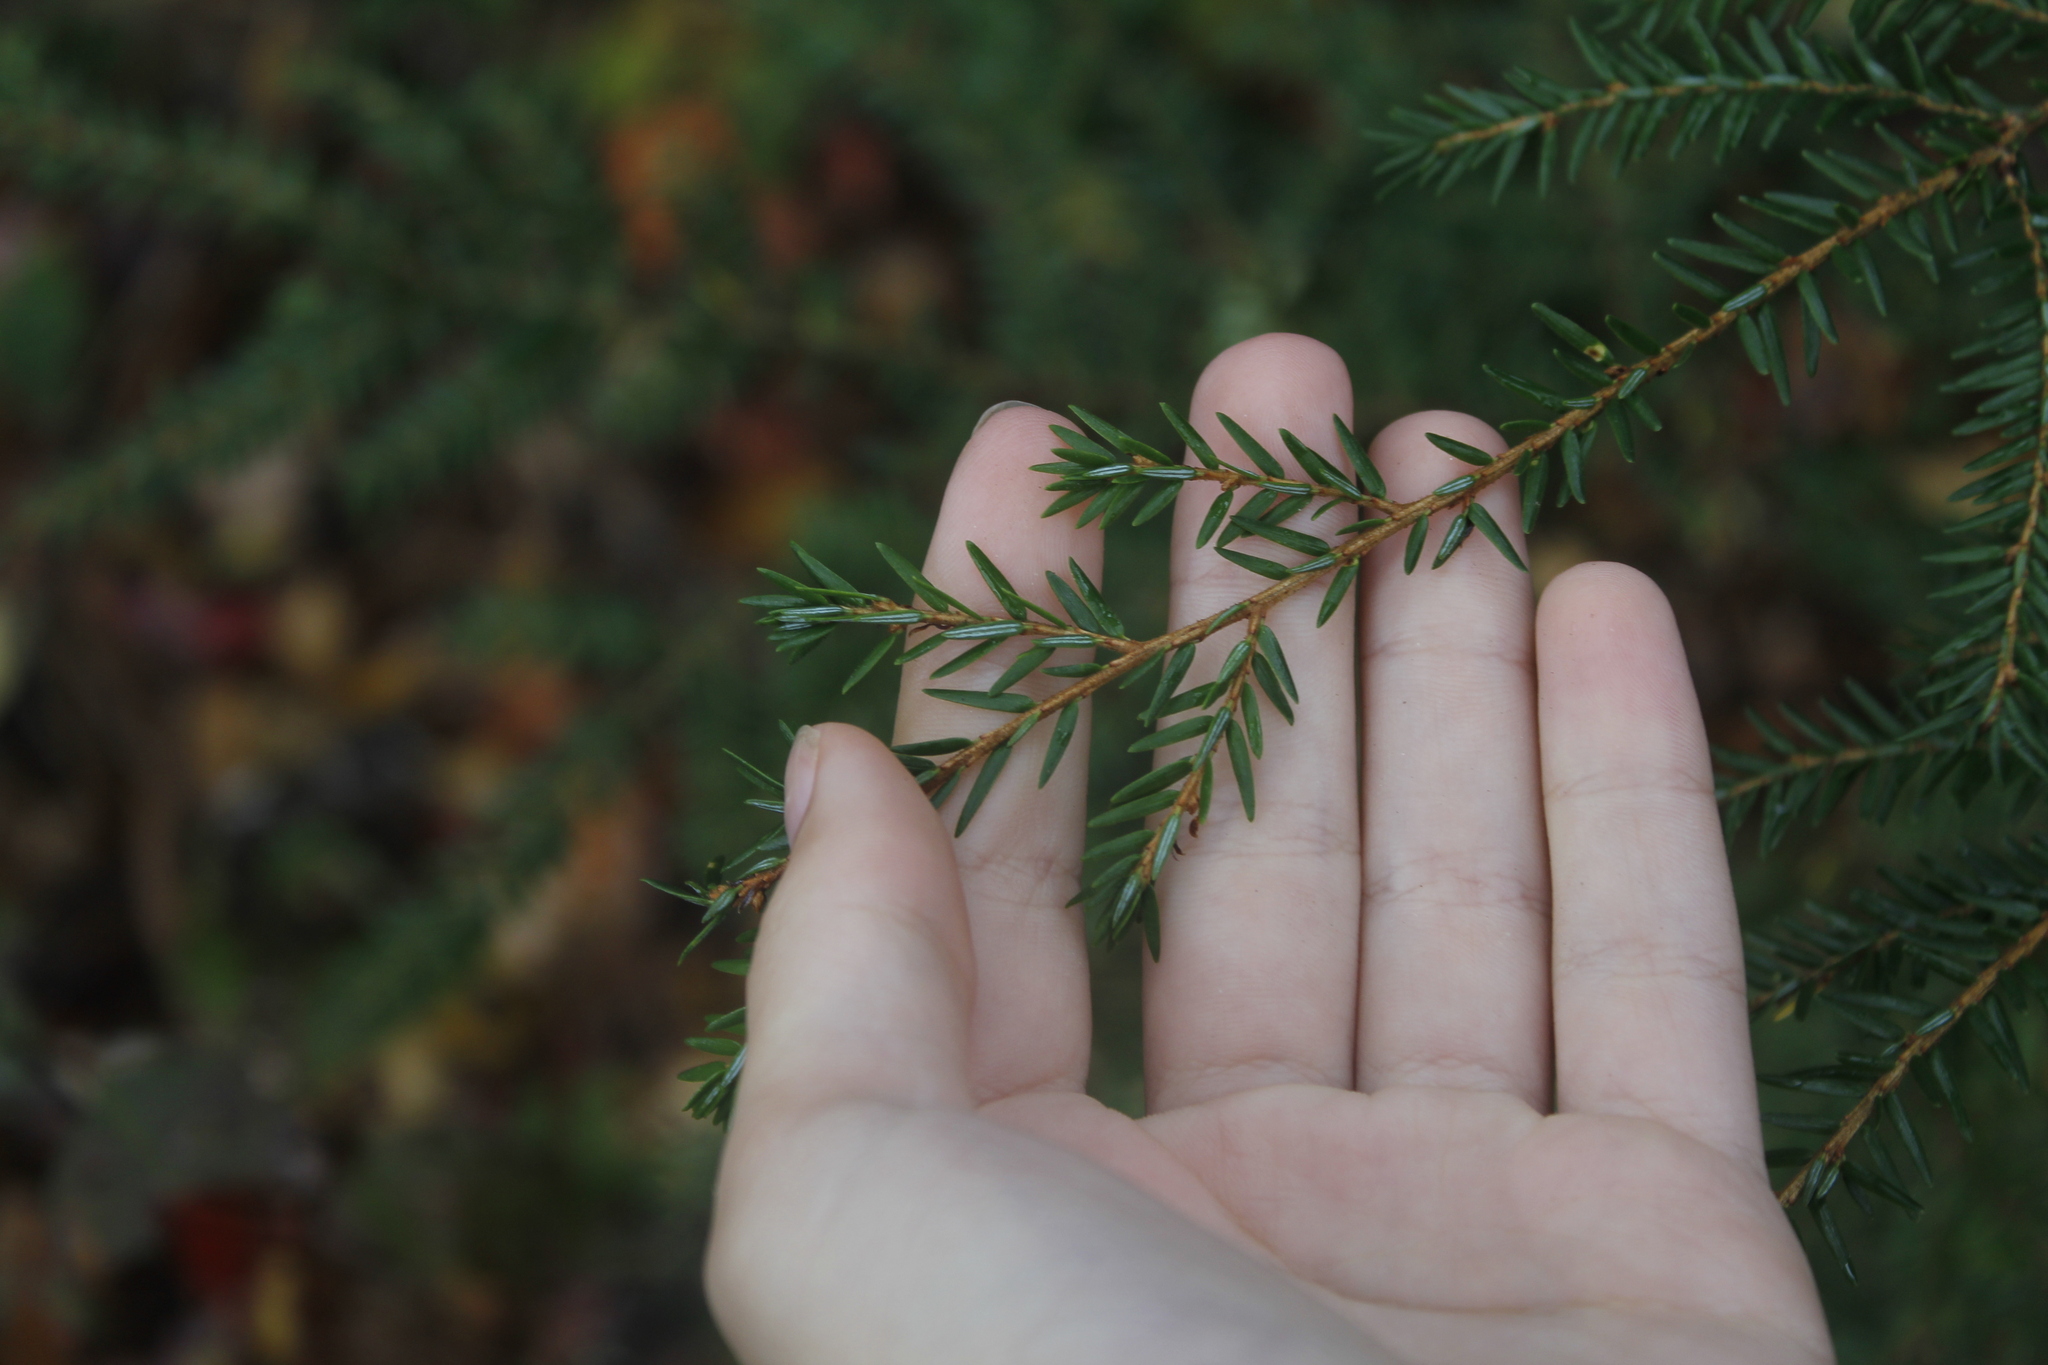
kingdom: Plantae
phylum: Tracheophyta
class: Pinopsida
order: Pinales
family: Pinaceae
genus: Tsuga
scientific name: Tsuga canadensis
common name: Eastern hemlock
